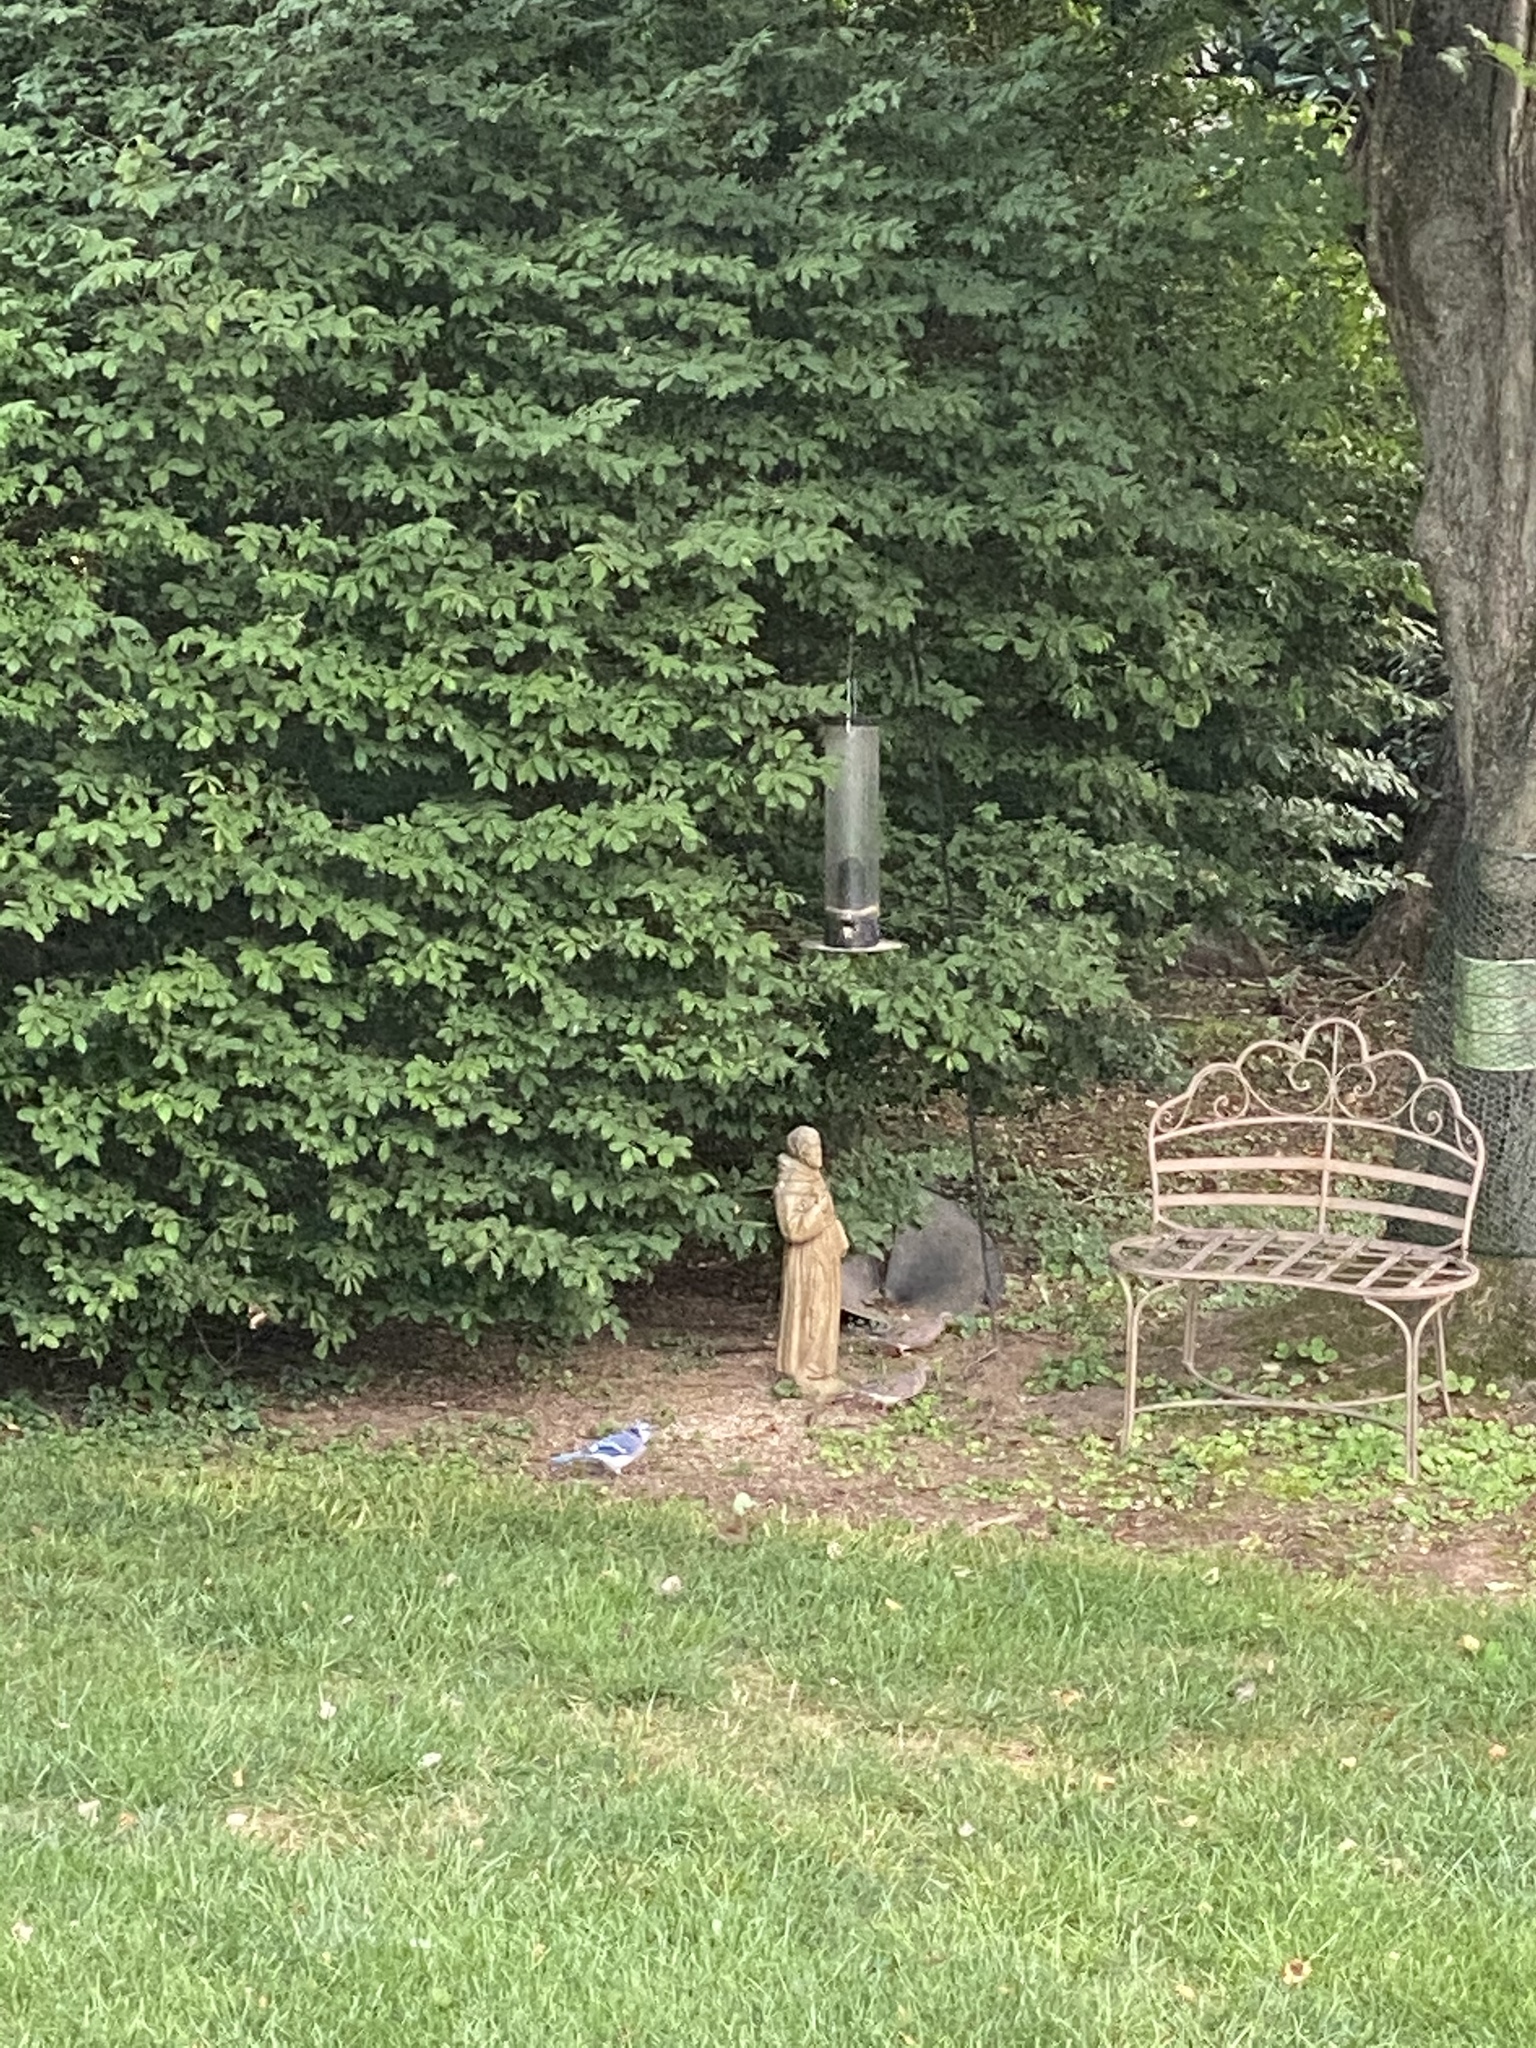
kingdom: Animalia
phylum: Chordata
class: Aves
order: Passeriformes
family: Corvidae
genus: Cyanocitta
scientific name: Cyanocitta cristata
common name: Blue jay
